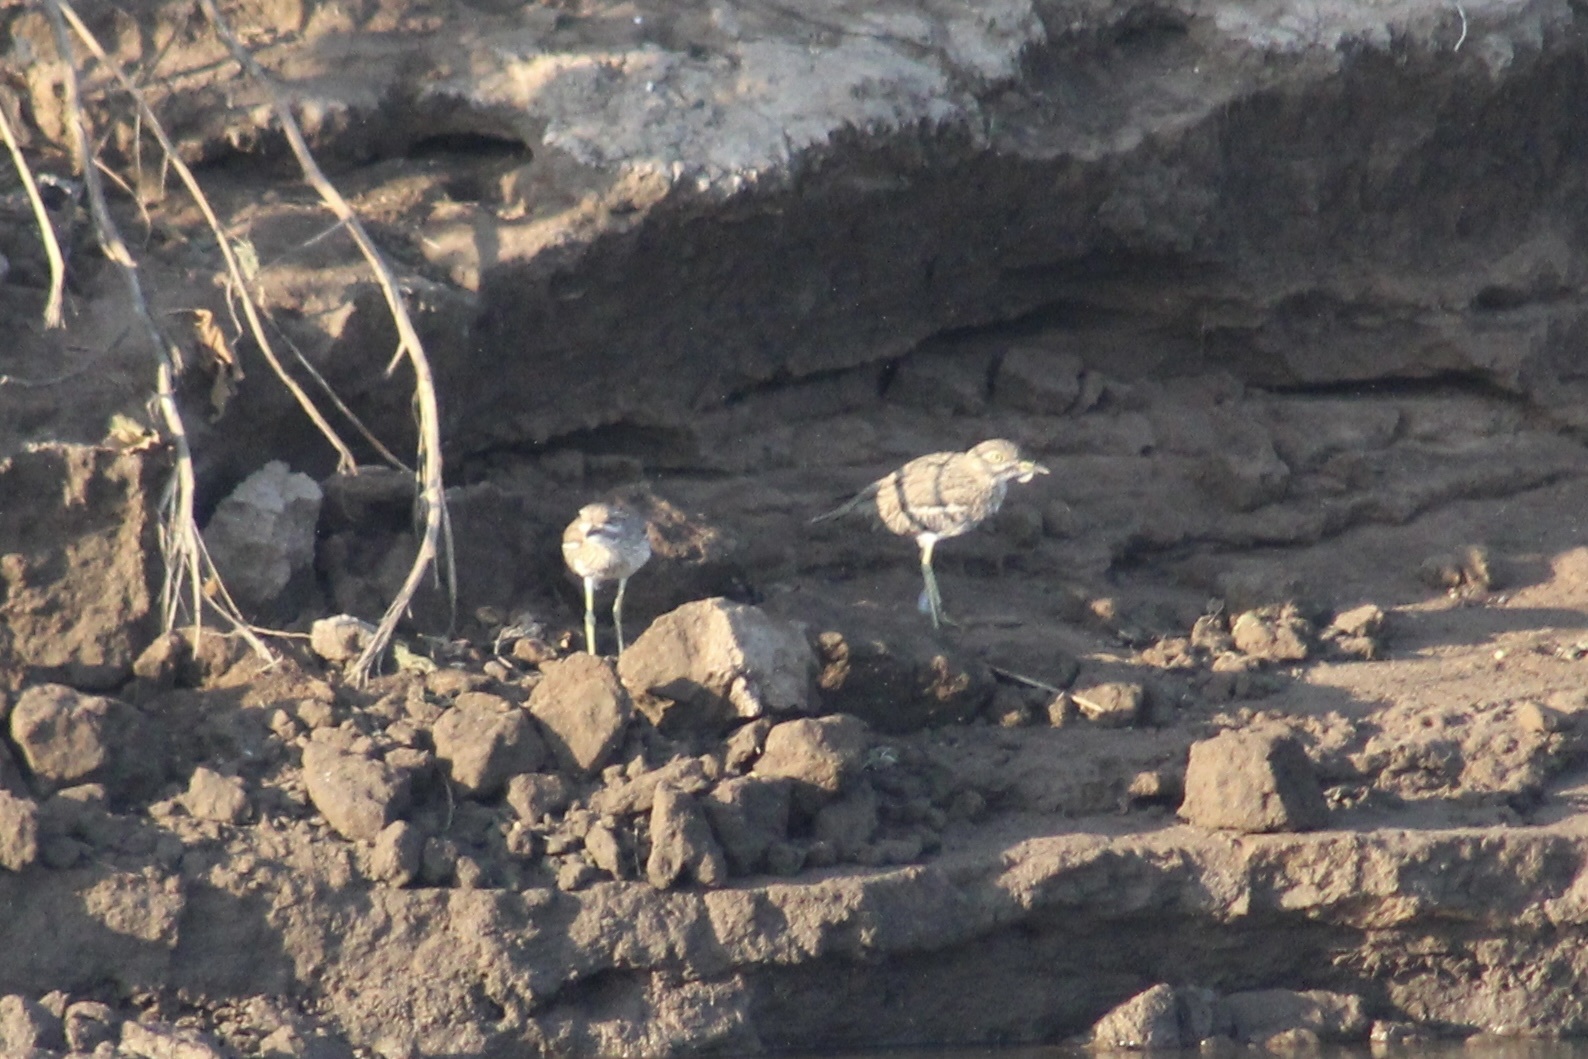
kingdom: Animalia
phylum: Chordata
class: Aves
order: Charadriiformes
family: Burhinidae
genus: Burhinus
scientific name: Burhinus vermiculatus
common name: Water thick-knee
